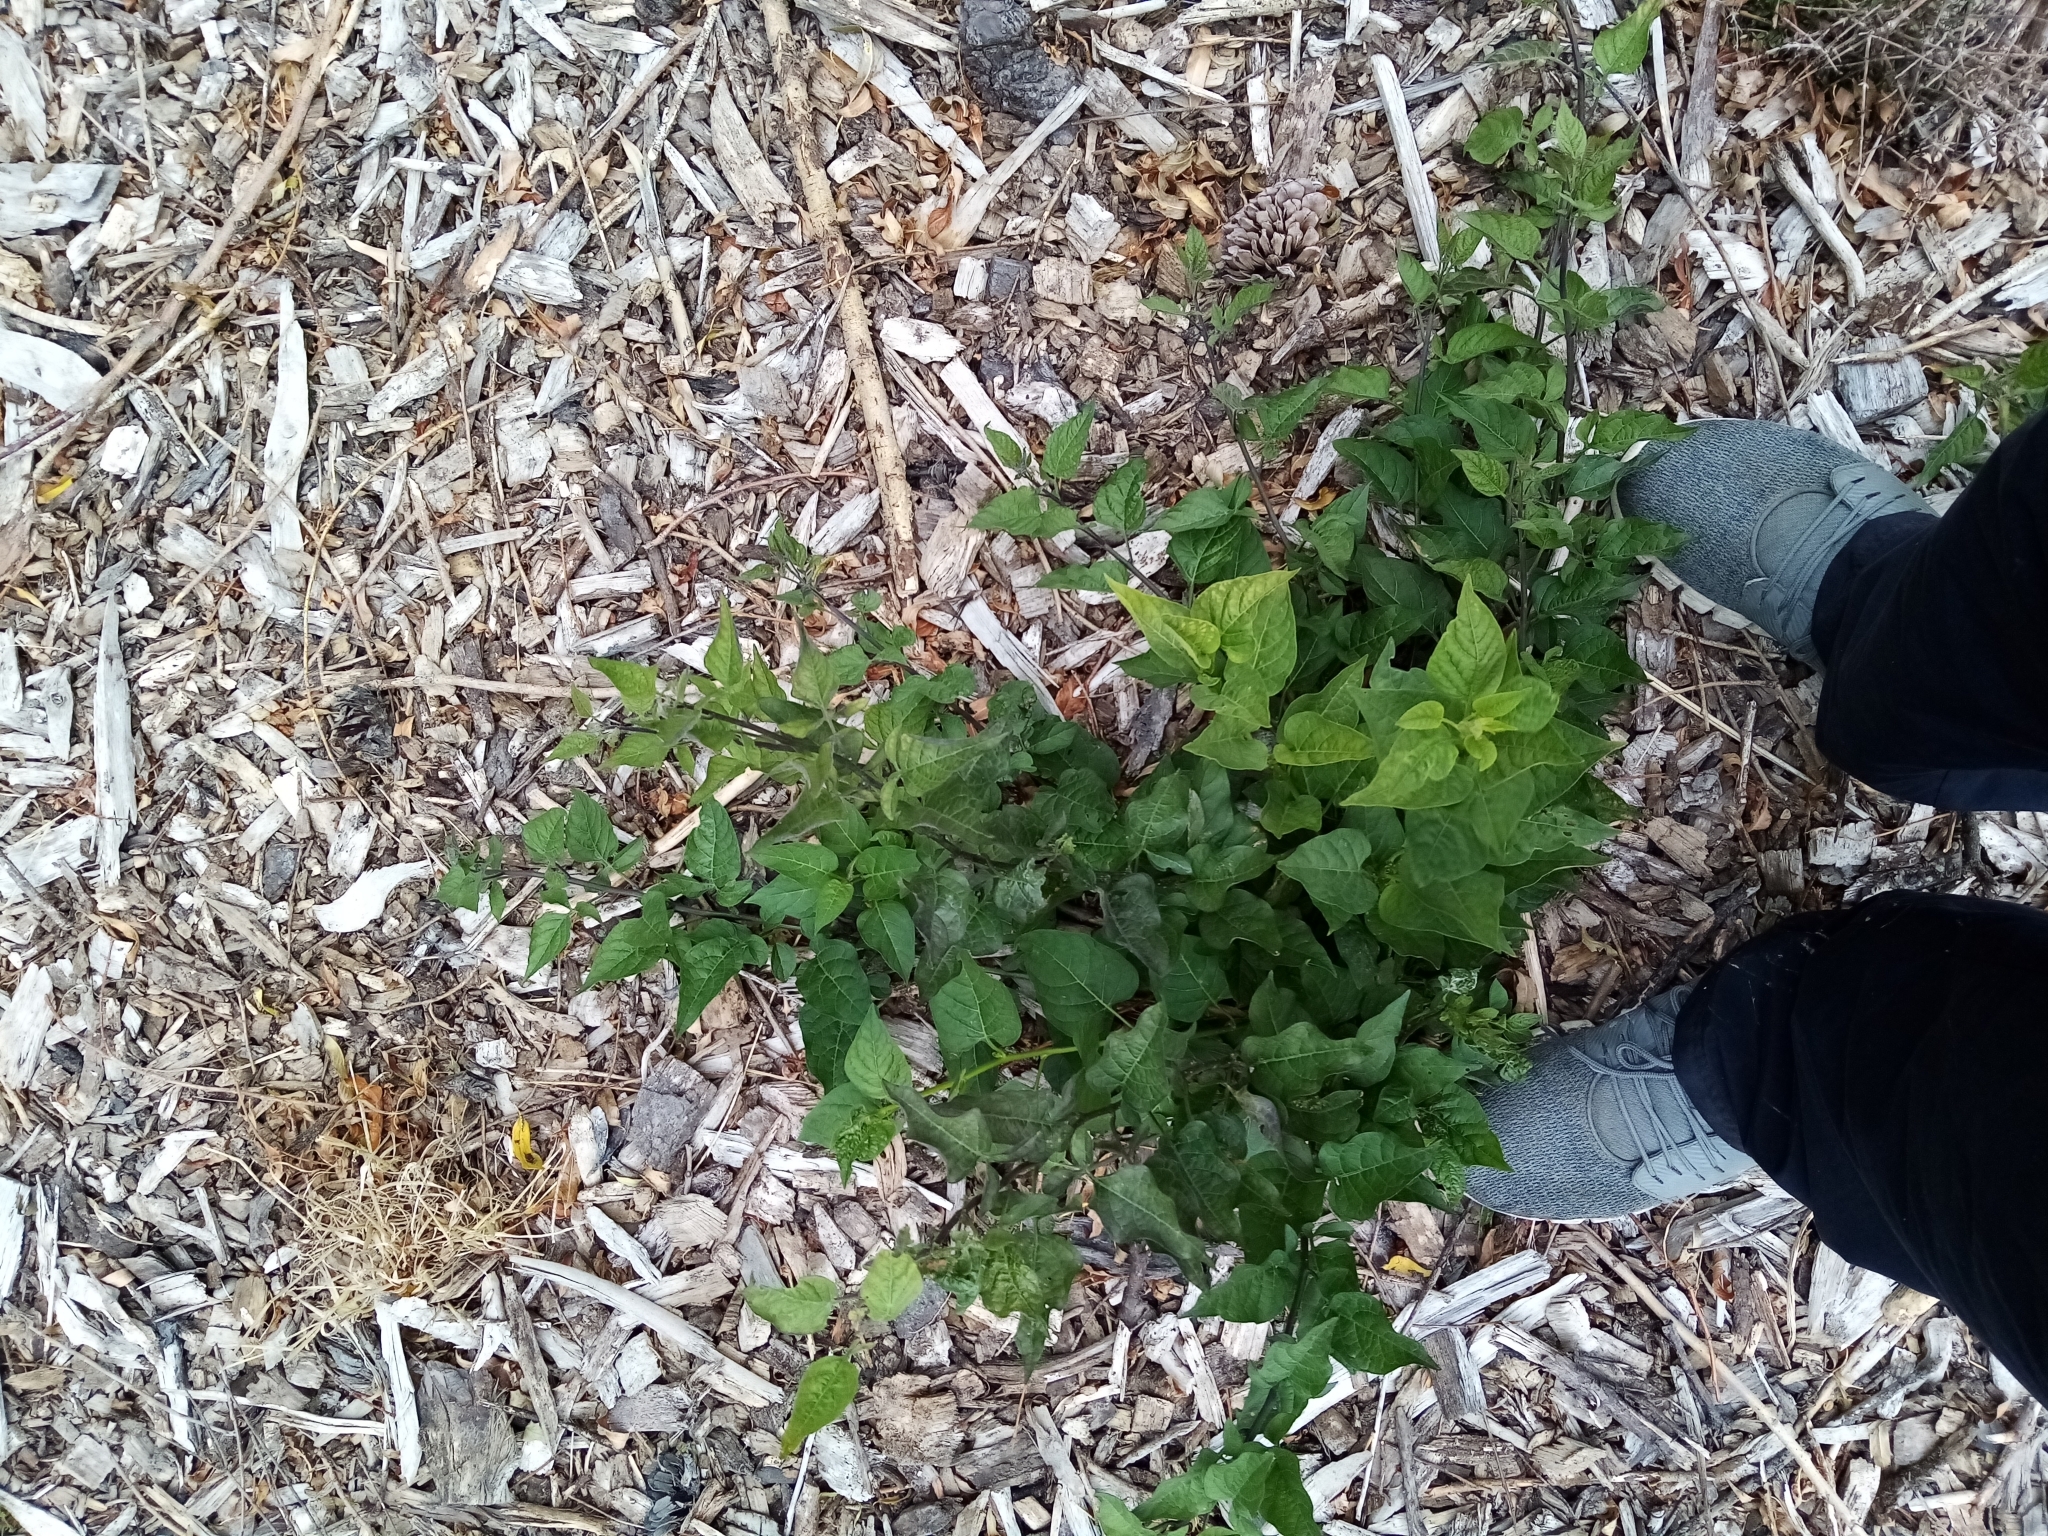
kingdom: Plantae
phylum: Tracheophyta
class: Magnoliopsida
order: Solanales
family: Solanaceae
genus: Solanum
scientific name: Solanum dulcamara
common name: Climbing nightshade
